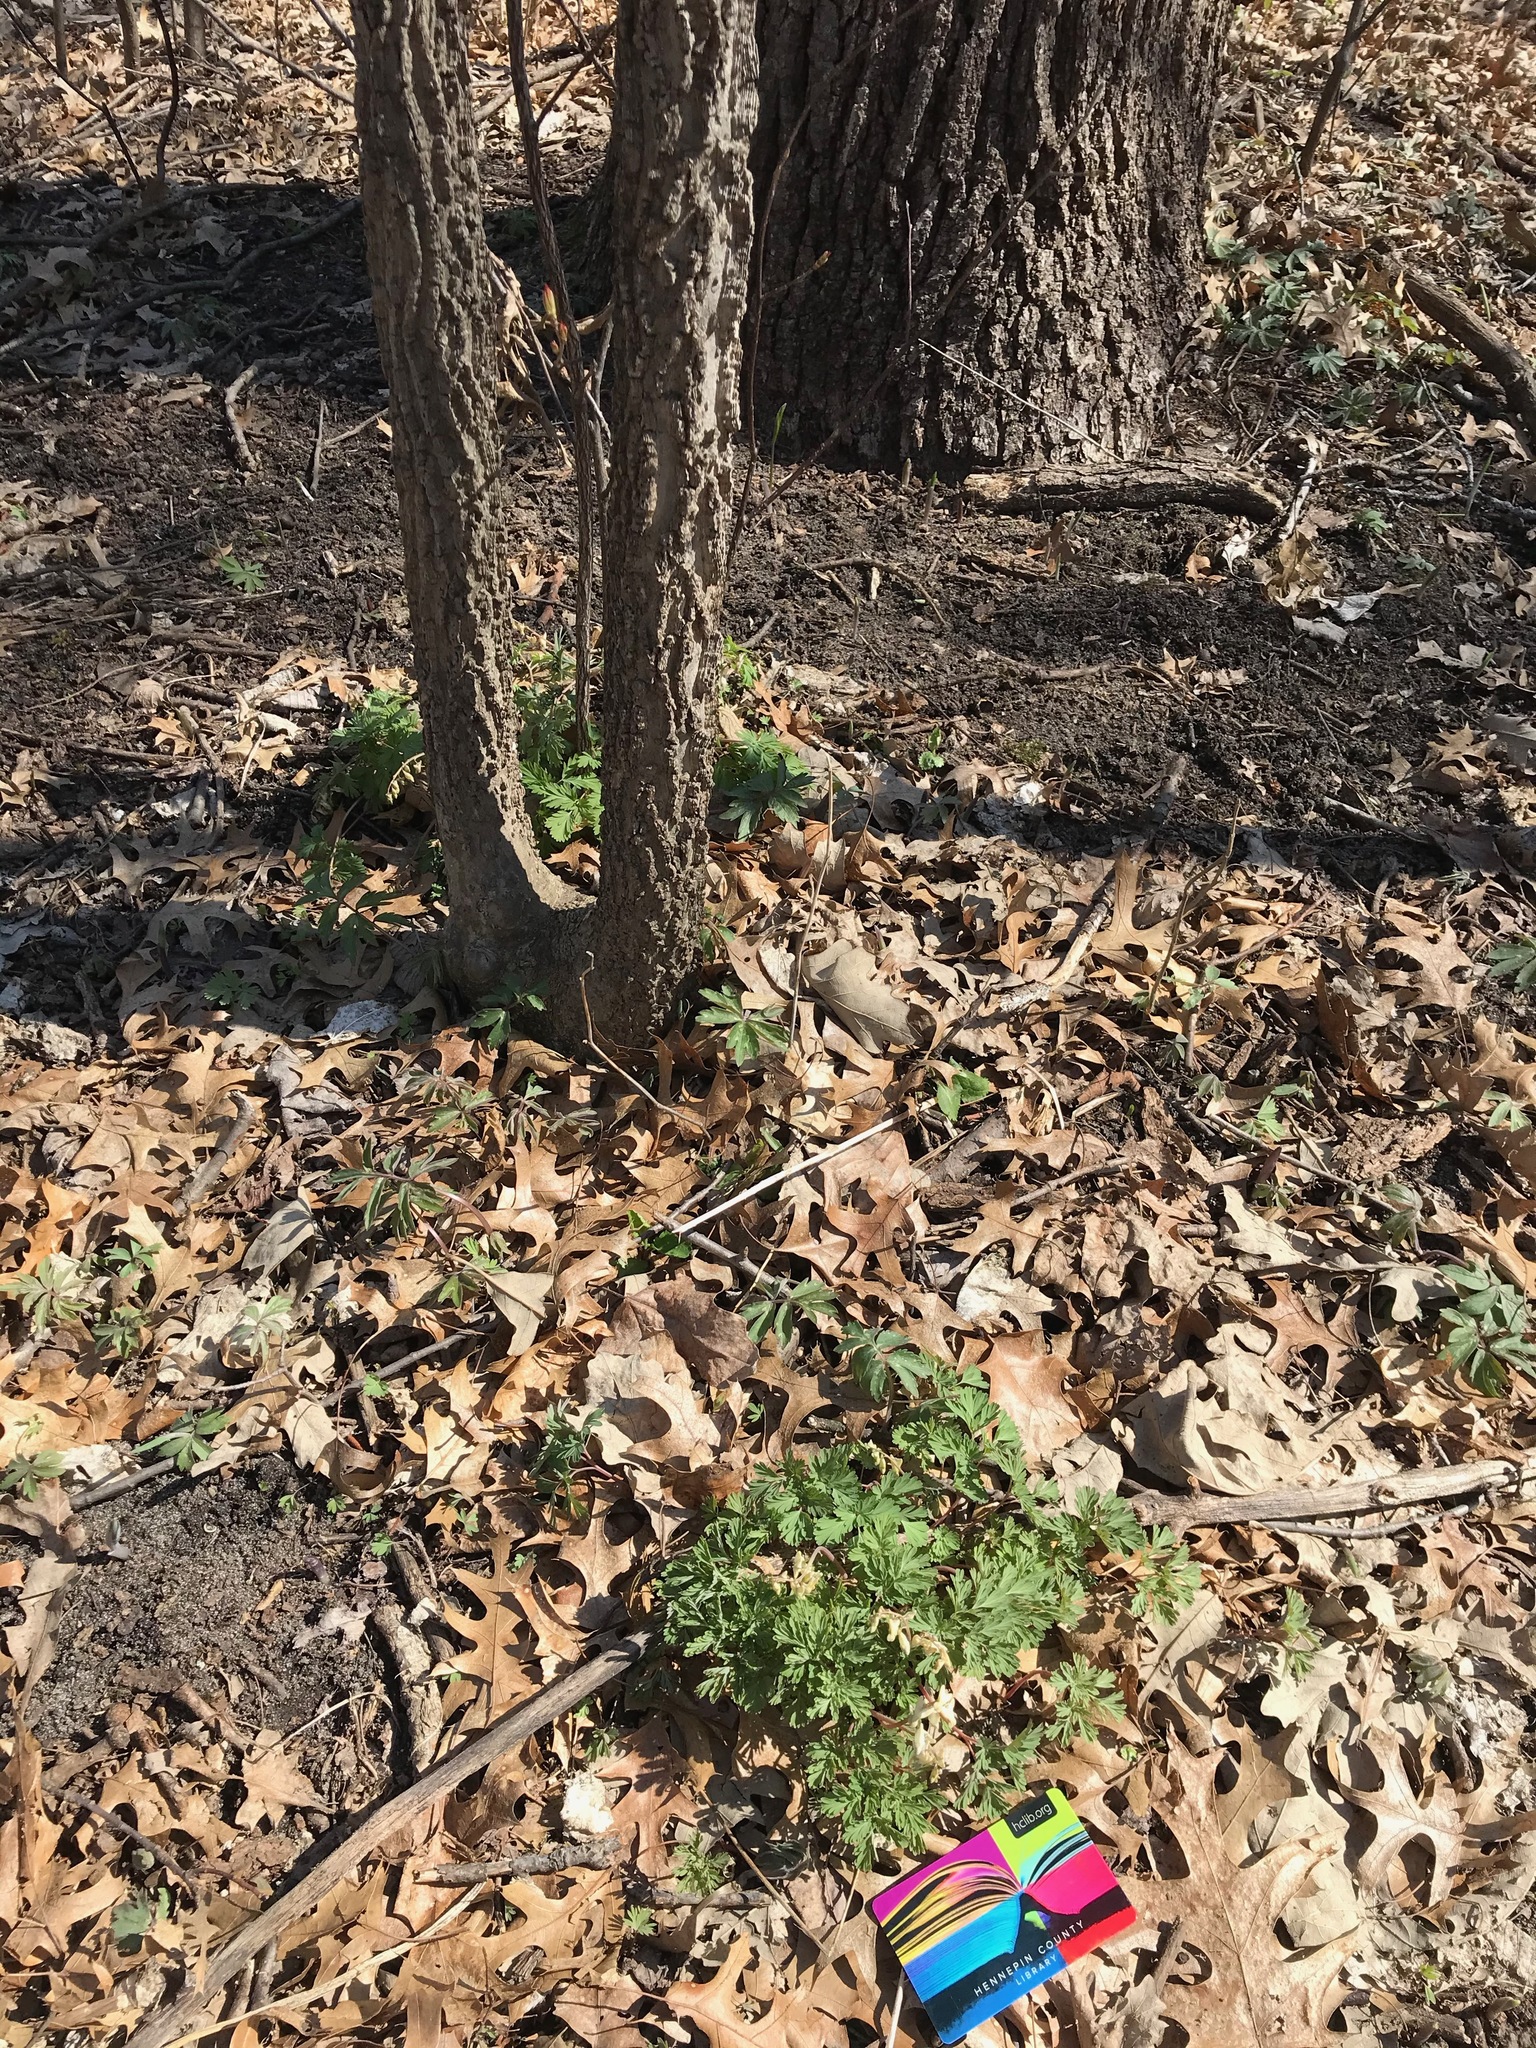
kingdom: Plantae
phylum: Tracheophyta
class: Magnoliopsida
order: Ranunculales
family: Papaveraceae
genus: Dicentra
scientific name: Dicentra cucullaria
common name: Dutchman's breeches
